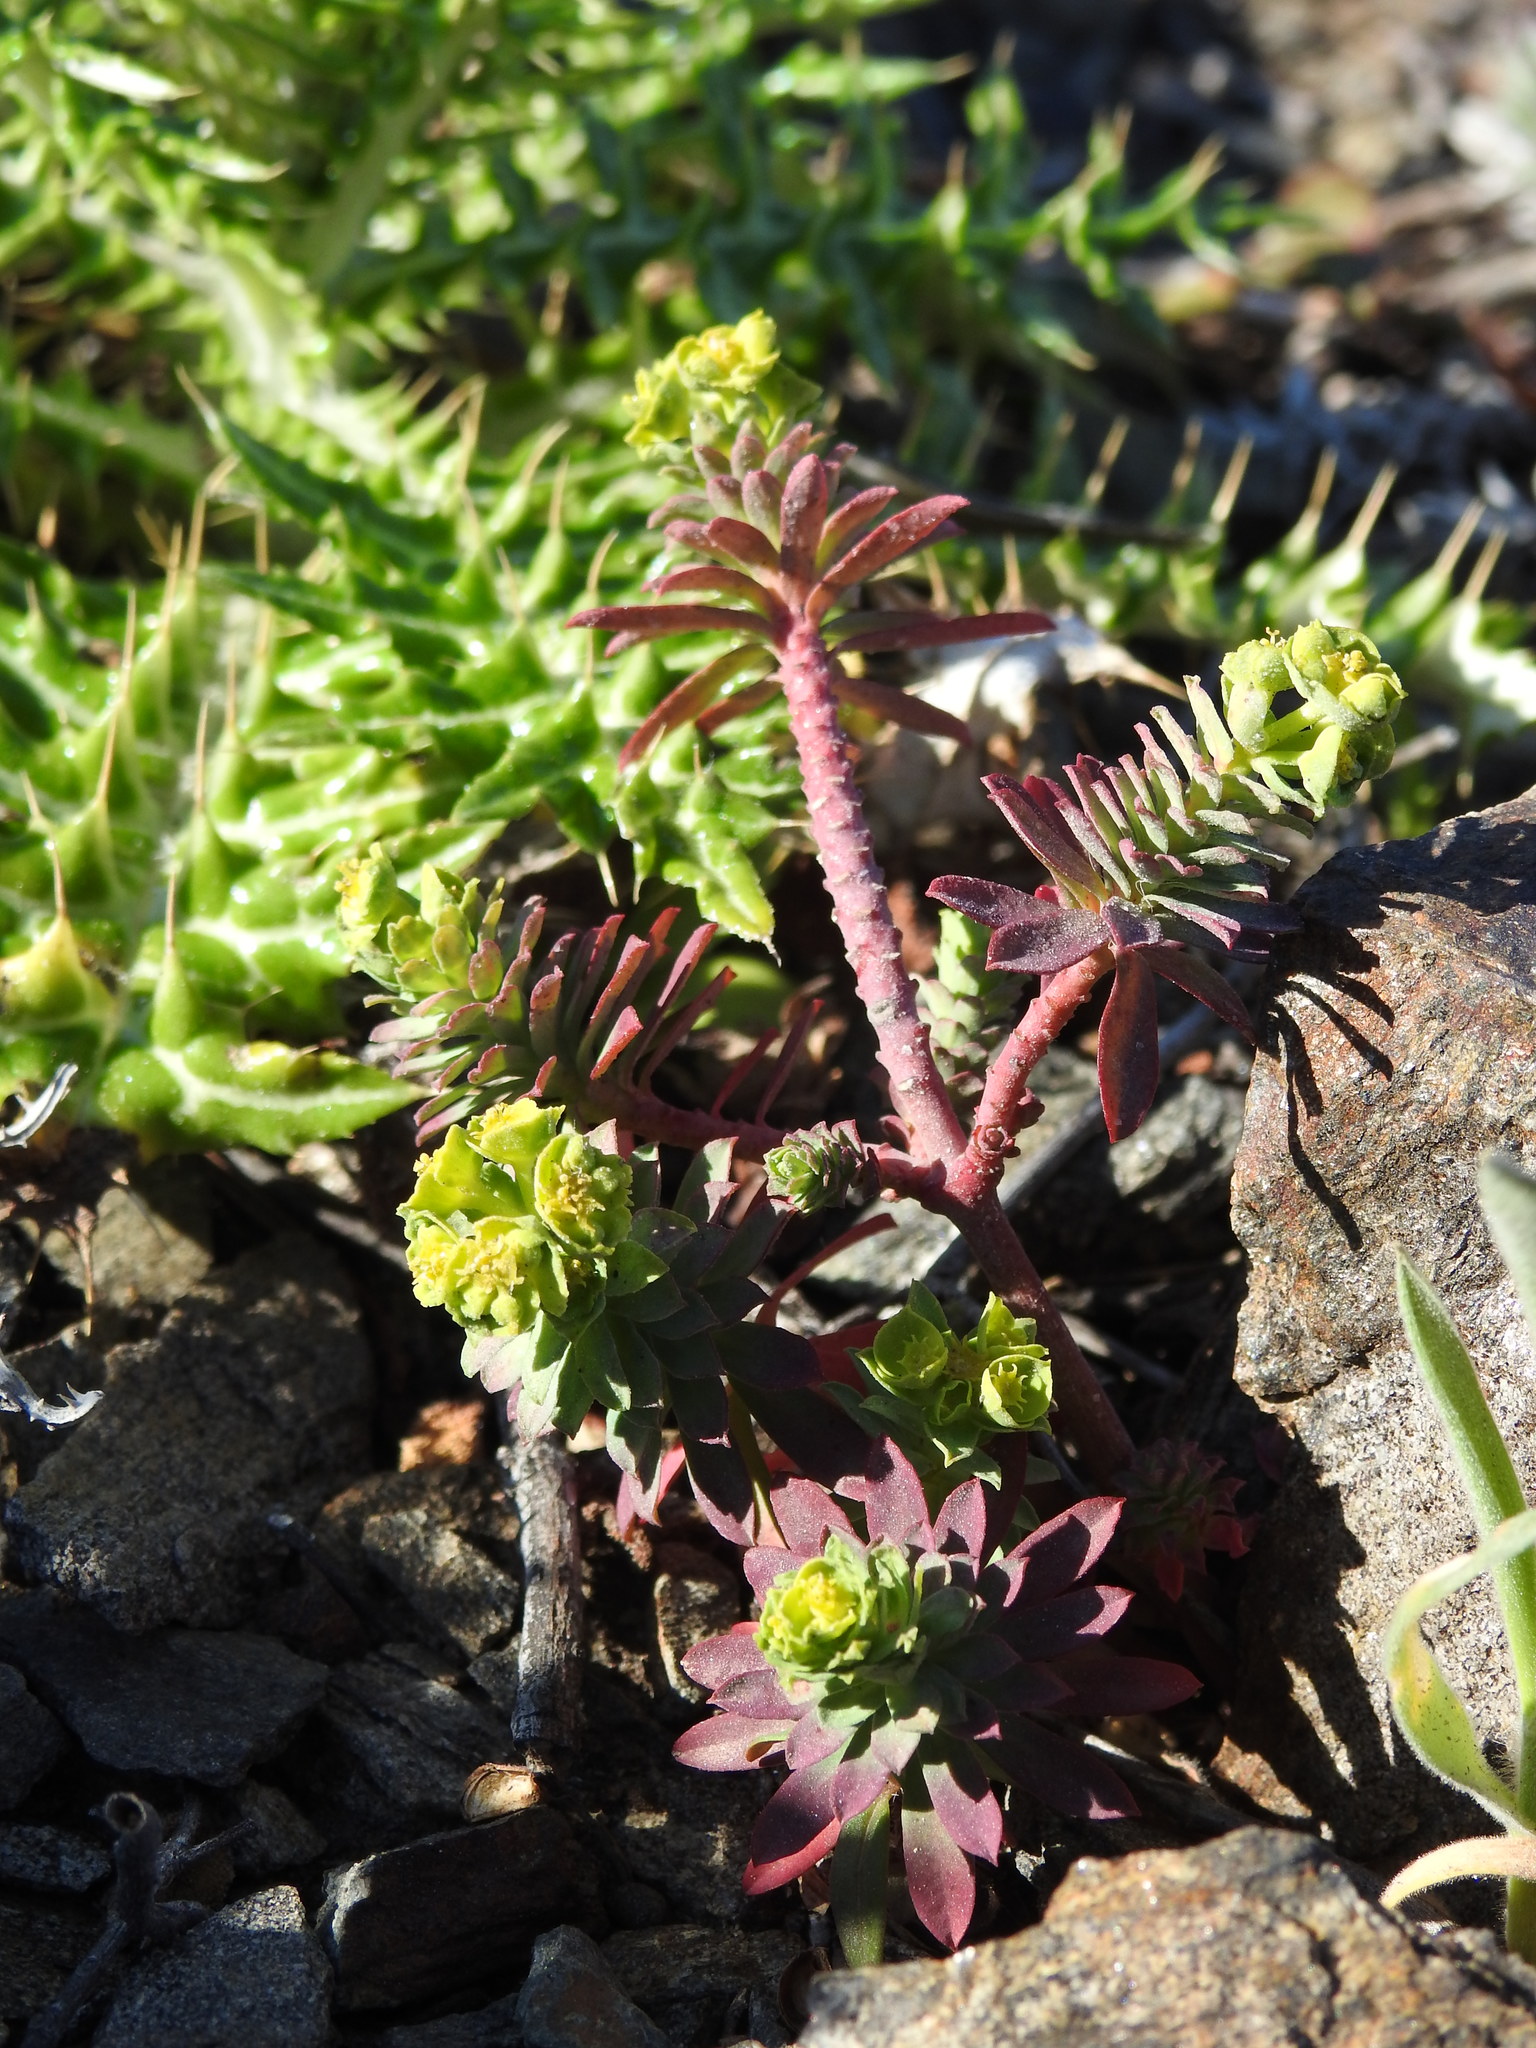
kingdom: Plantae
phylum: Tracheophyta
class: Magnoliopsida
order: Malpighiales
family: Euphorbiaceae
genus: Euphorbia
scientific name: Euphorbia segetalis
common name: Corn spurge
